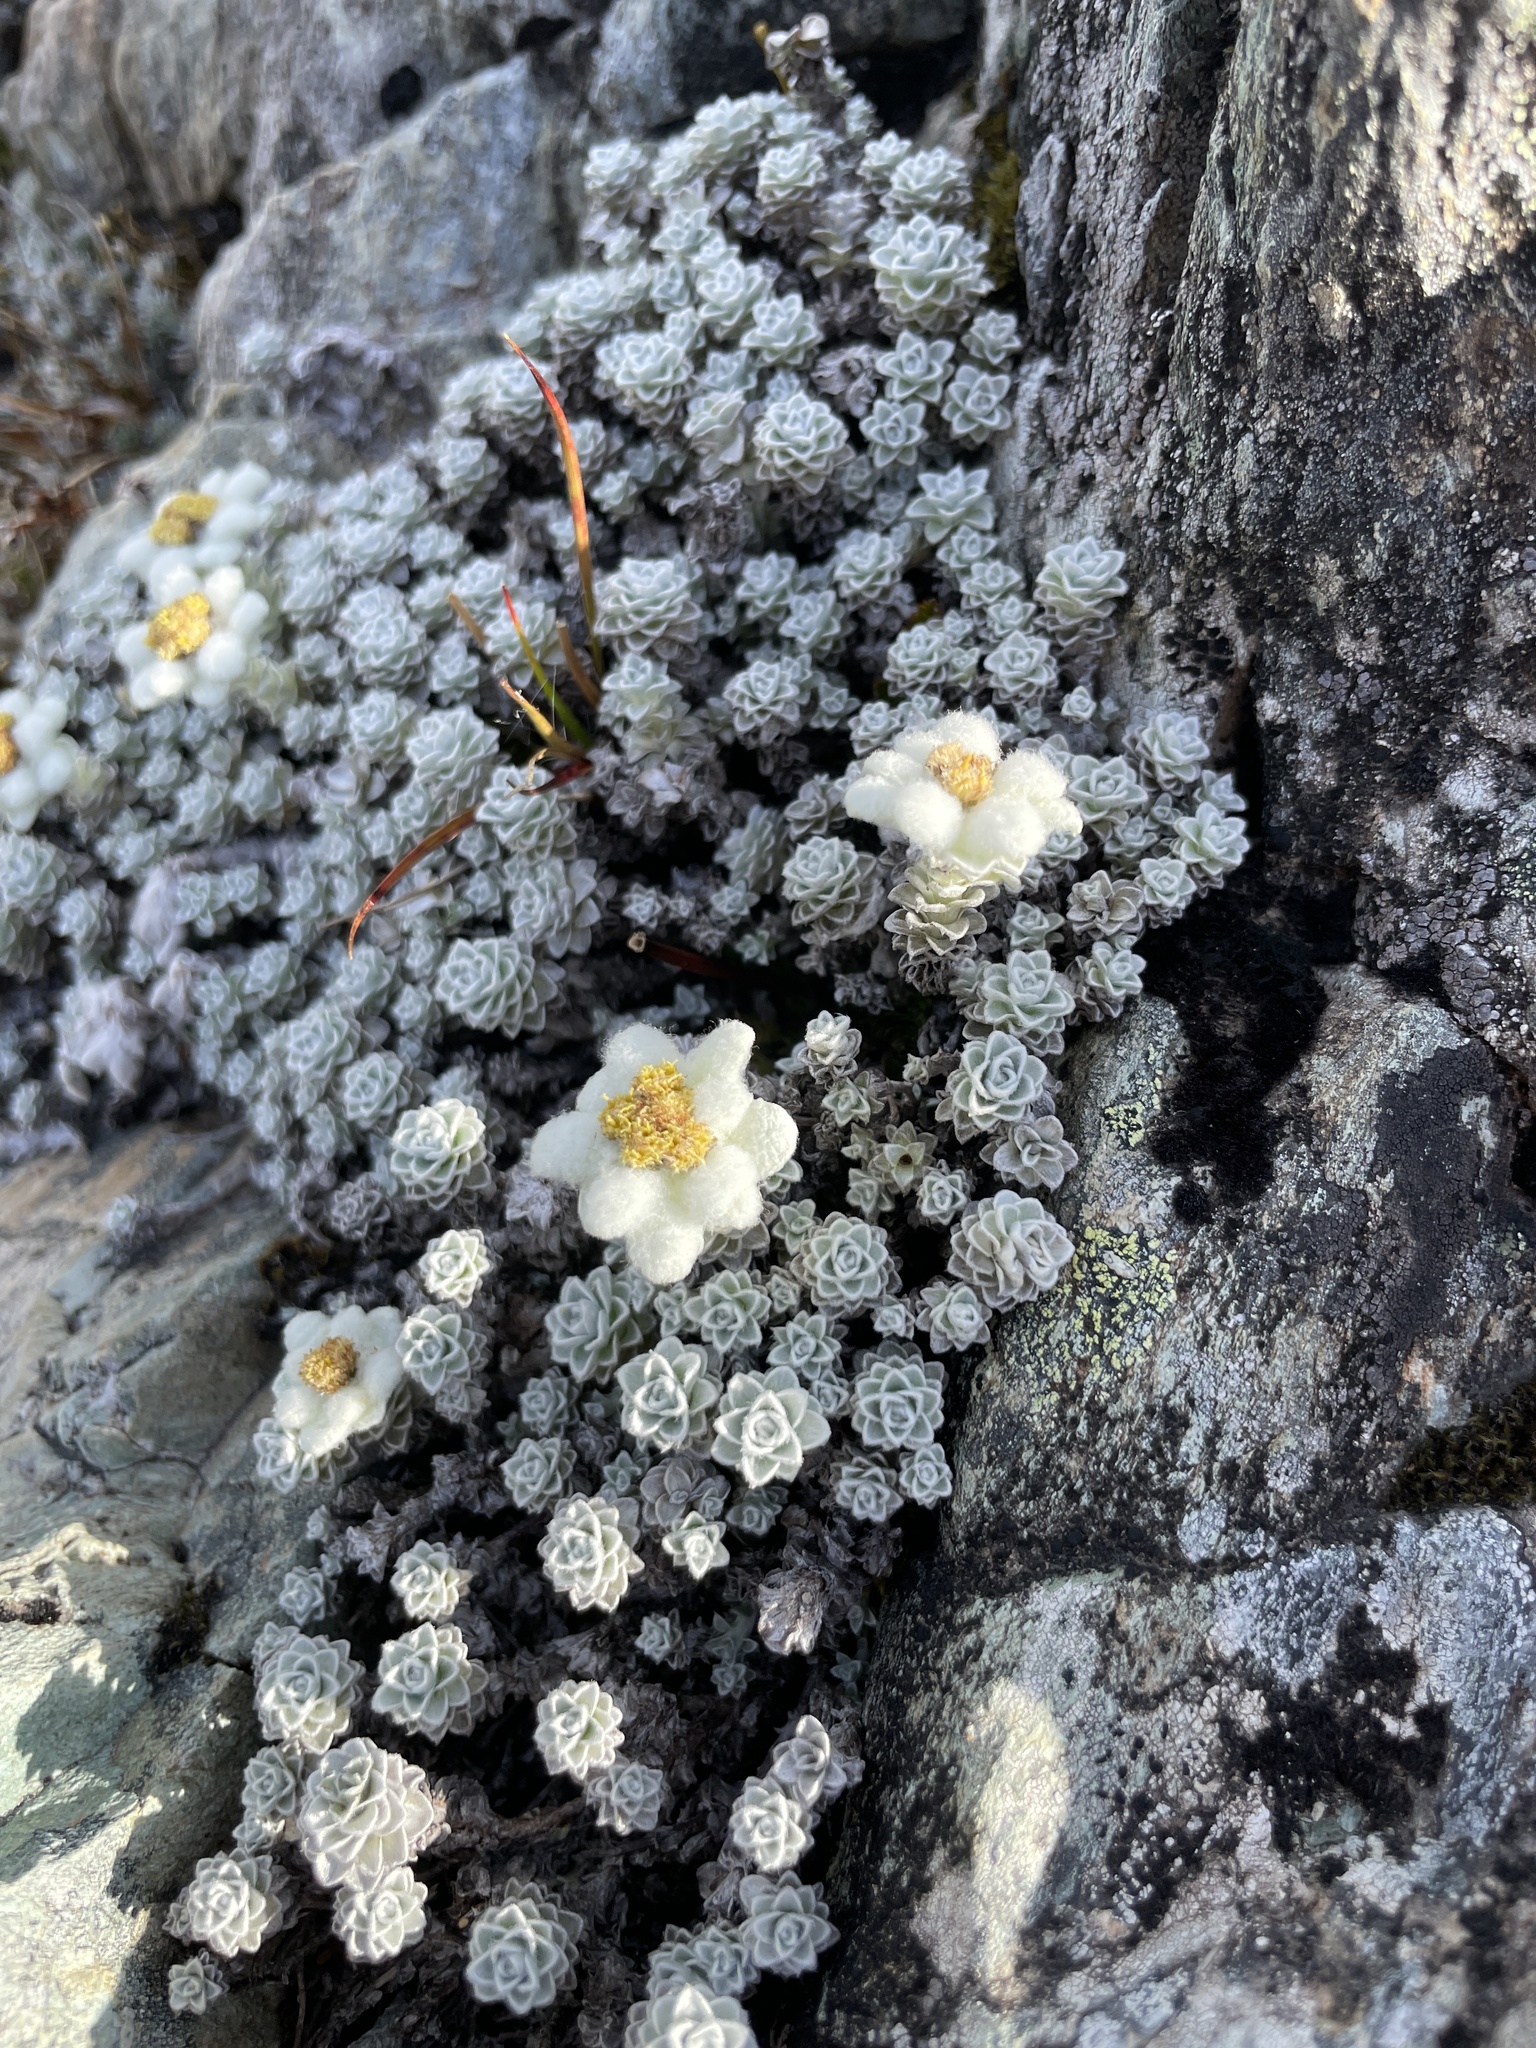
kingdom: Plantae
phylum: Tracheophyta
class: Magnoliopsida
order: Asterales
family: Asteraceae
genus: Leucogenes
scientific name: Leucogenes grandiceps
